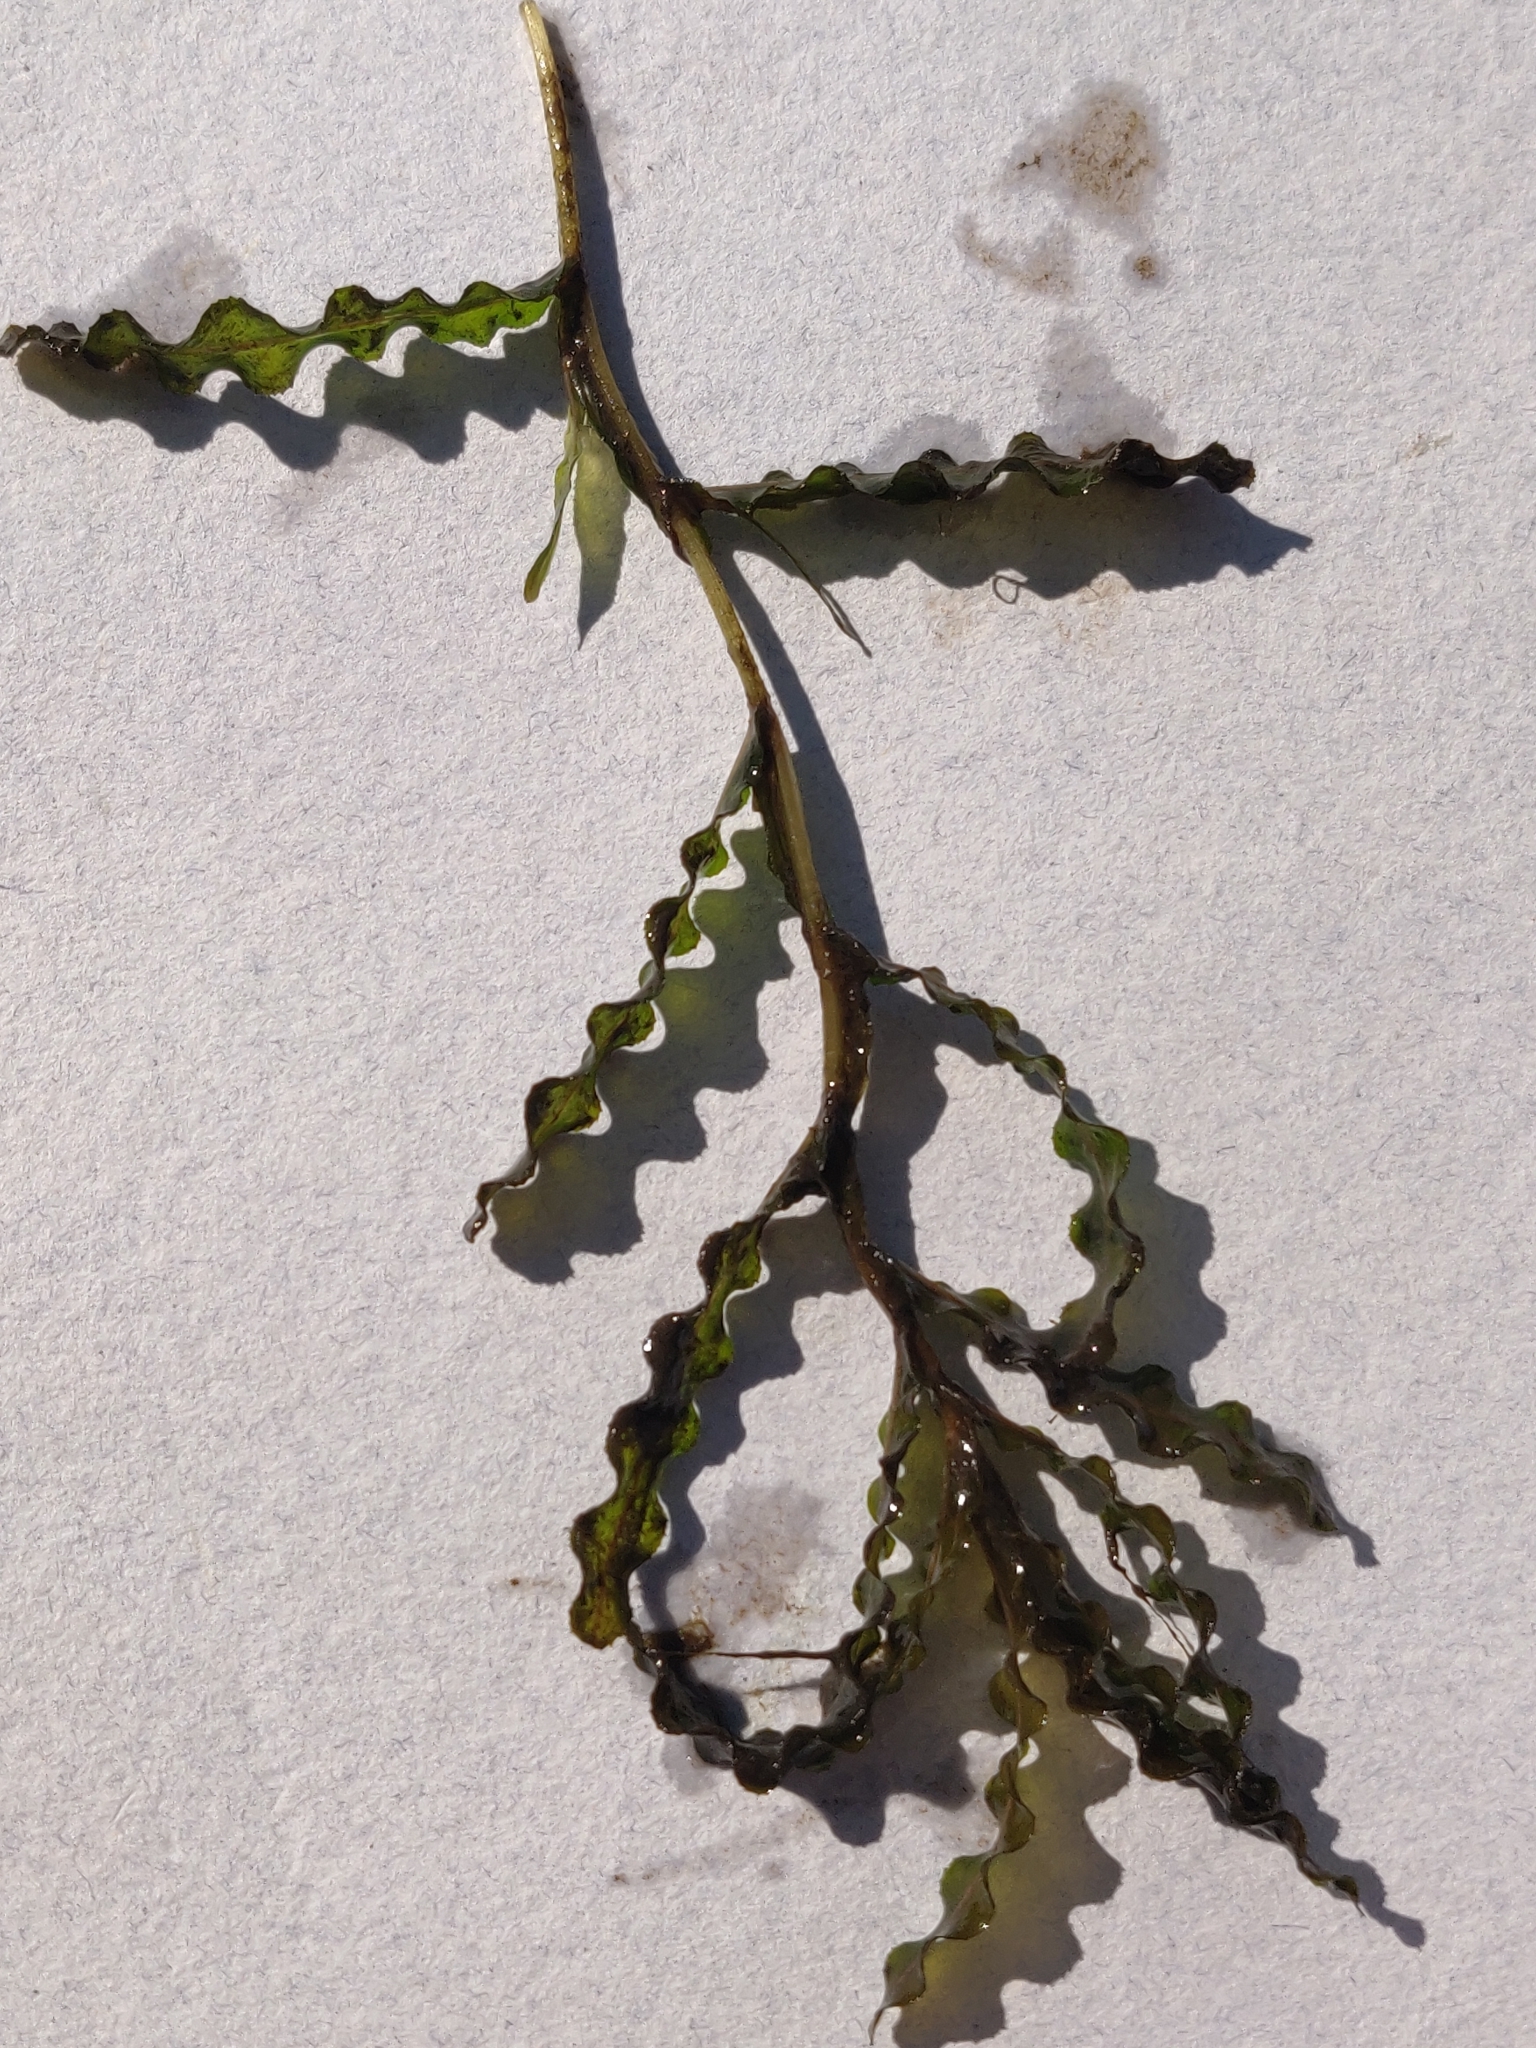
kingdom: Plantae
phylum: Tracheophyta
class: Liliopsida
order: Alismatales
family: Potamogetonaceae
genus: Potamogeton
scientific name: Potamogeton crispus
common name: Curled pondweed
